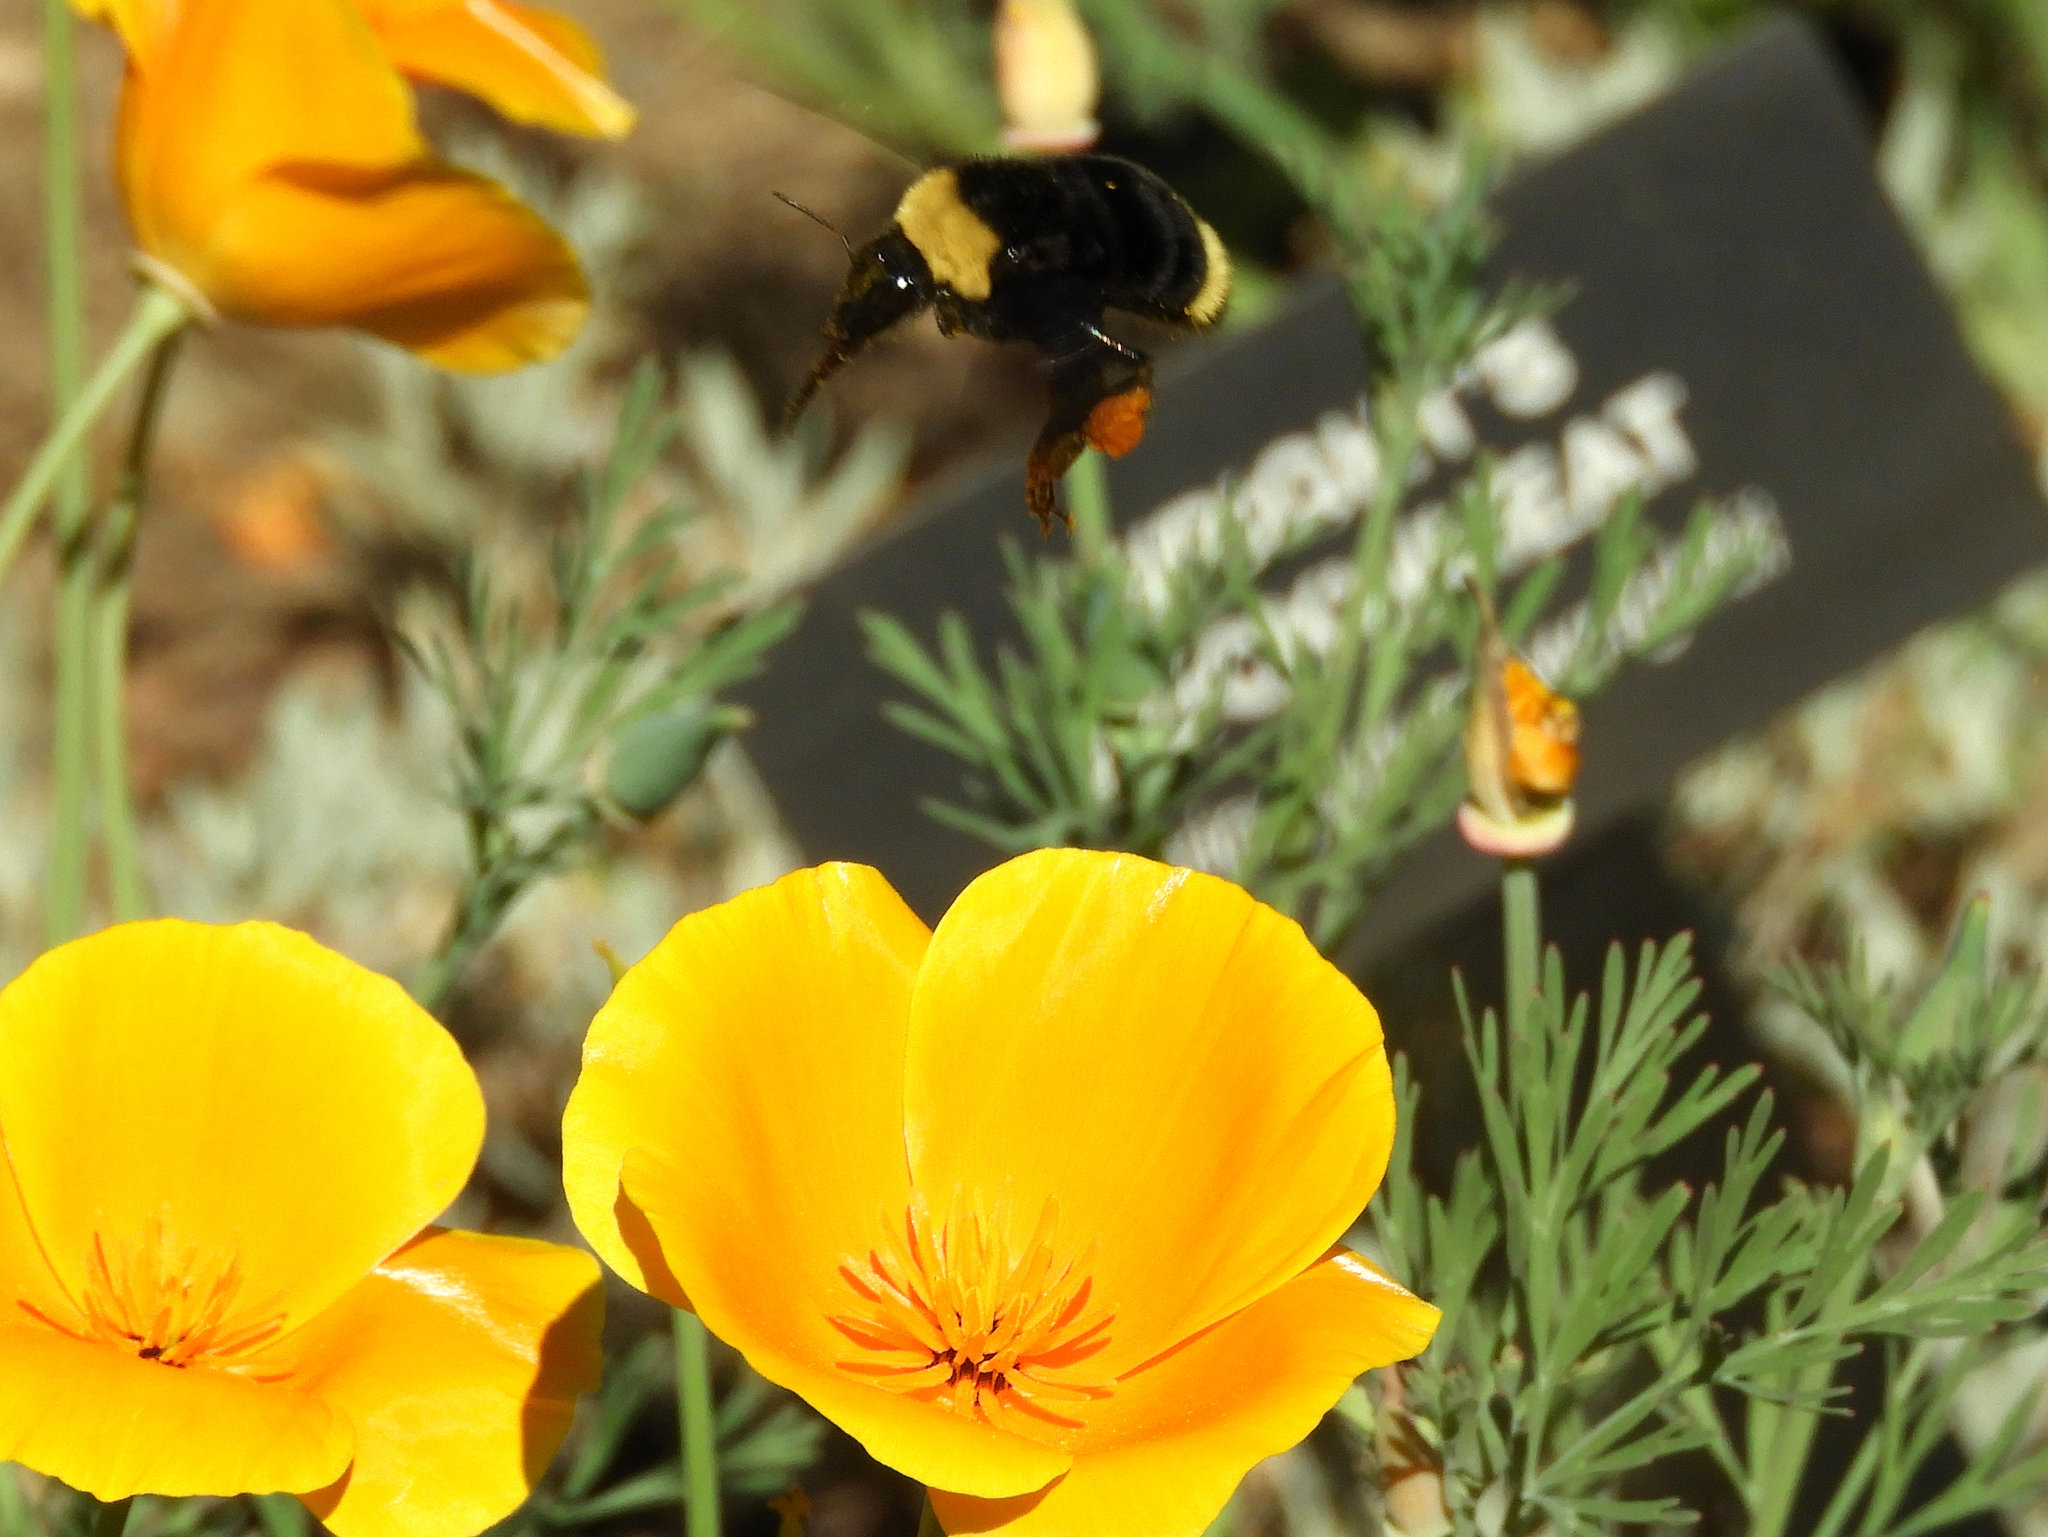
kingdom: Animalia
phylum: Arthropoda
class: Insecta
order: Hymenoptera
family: Apidae
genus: Bombus
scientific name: Bombus californicus
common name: California bumble bee
